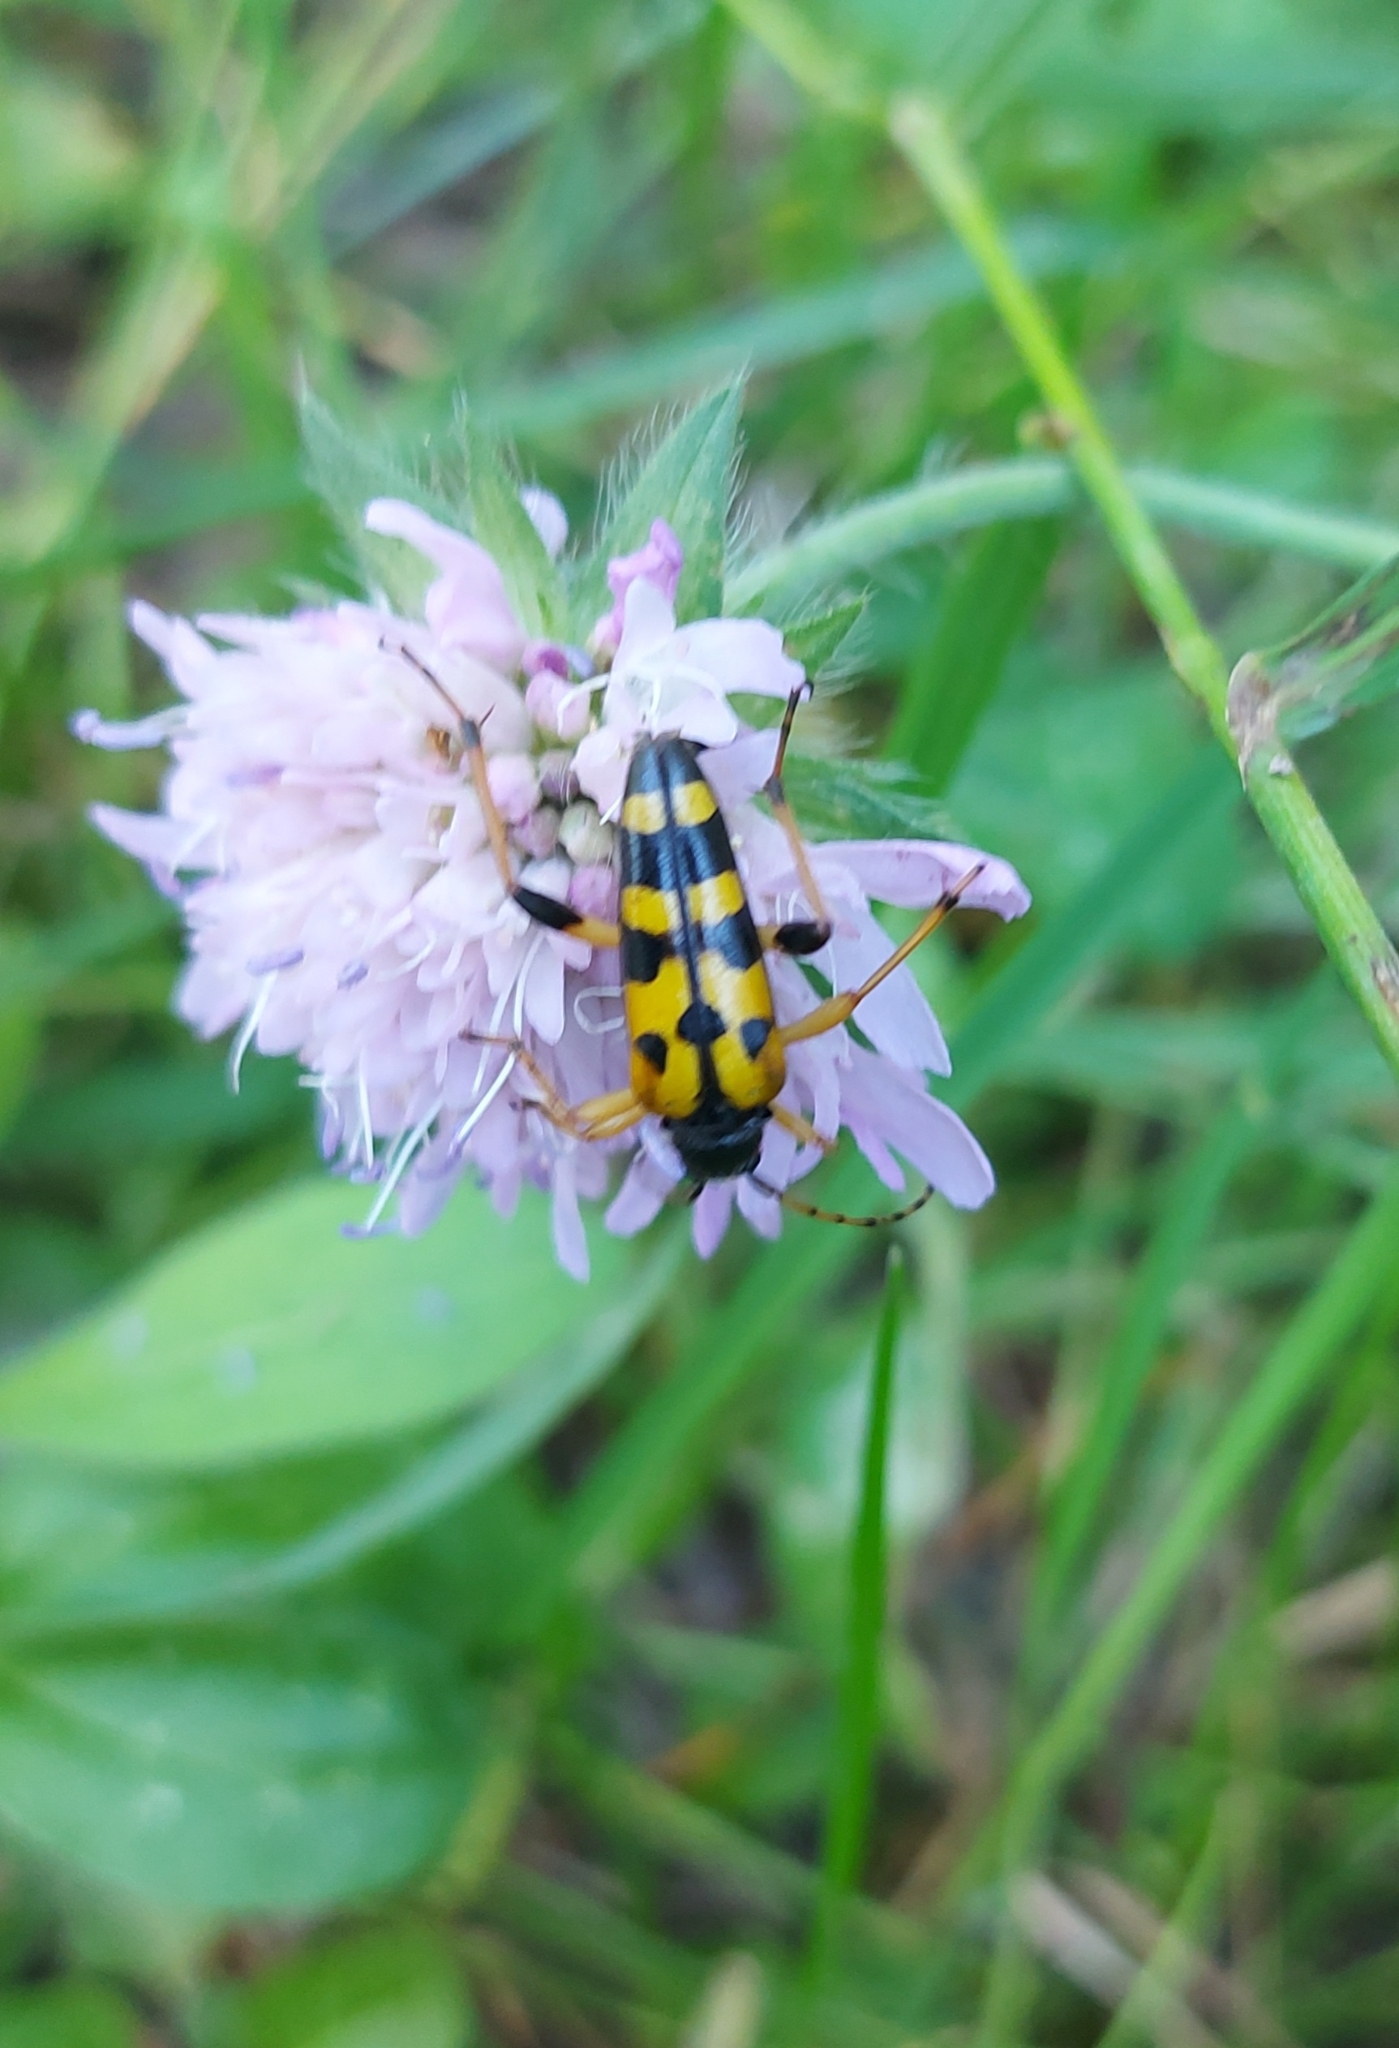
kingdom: Animalia
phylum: Arthropoda
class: Insecta
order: Coleoptera
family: Cerambycidae
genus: Rutpela
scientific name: Rutpela maculata
